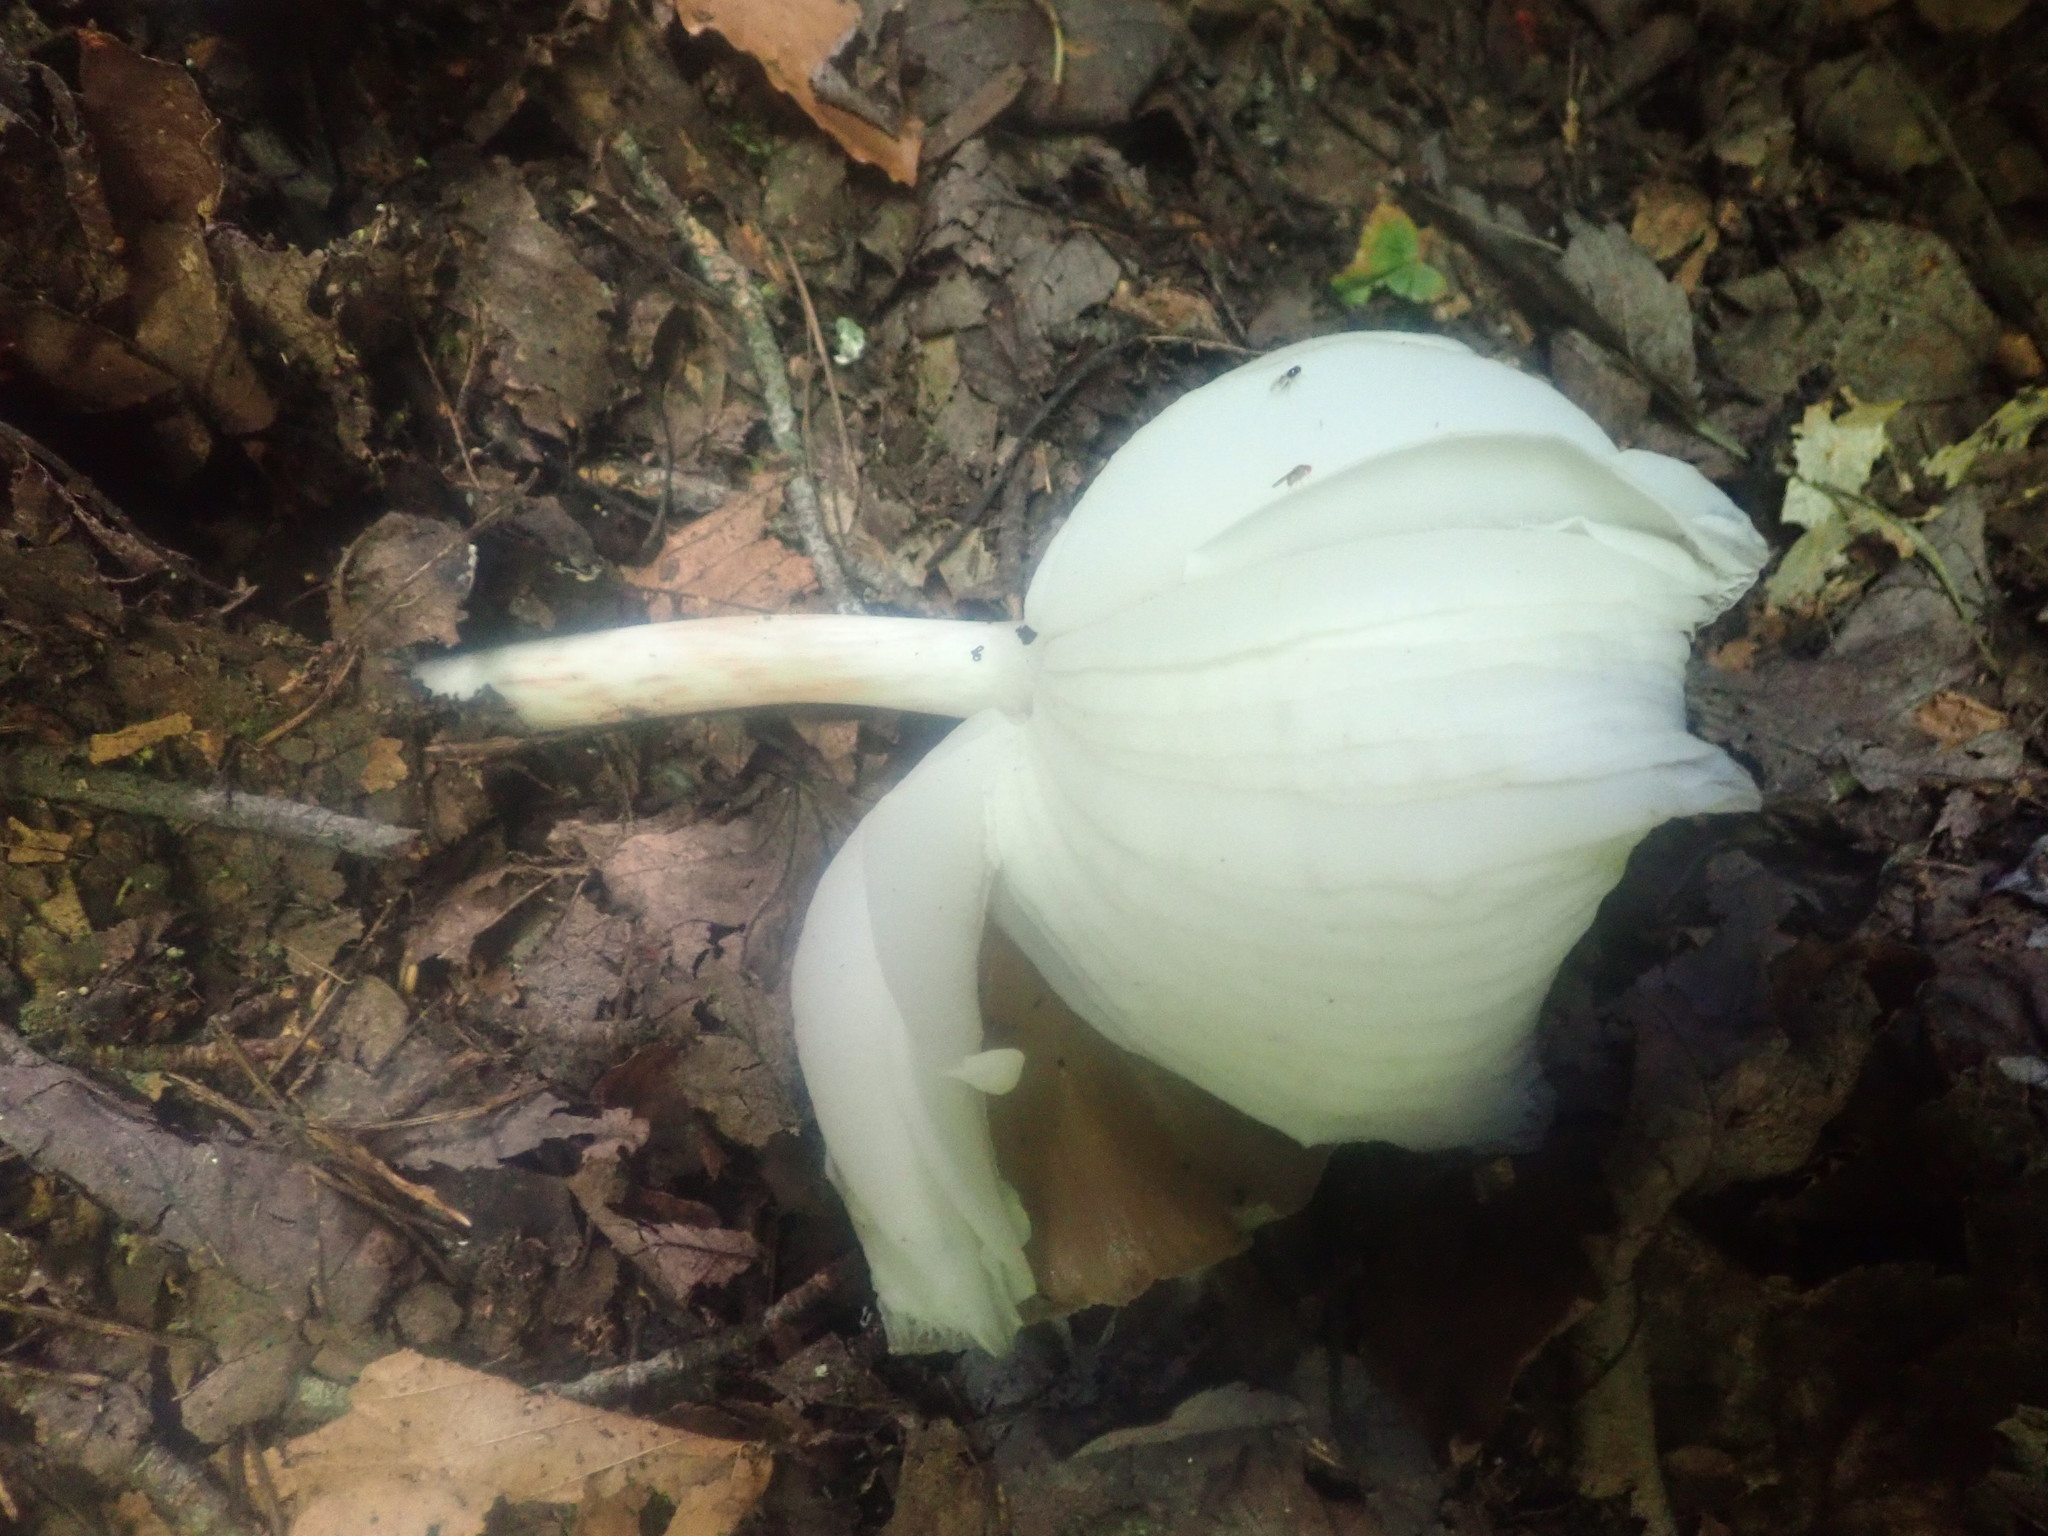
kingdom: Fungi
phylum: Basidiomycota
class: Agaricomycetes
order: Agaricales
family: Tricholomataceae
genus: Megacollybia
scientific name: Megacollybia rodmanii
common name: Eastern american platterful mushroom
